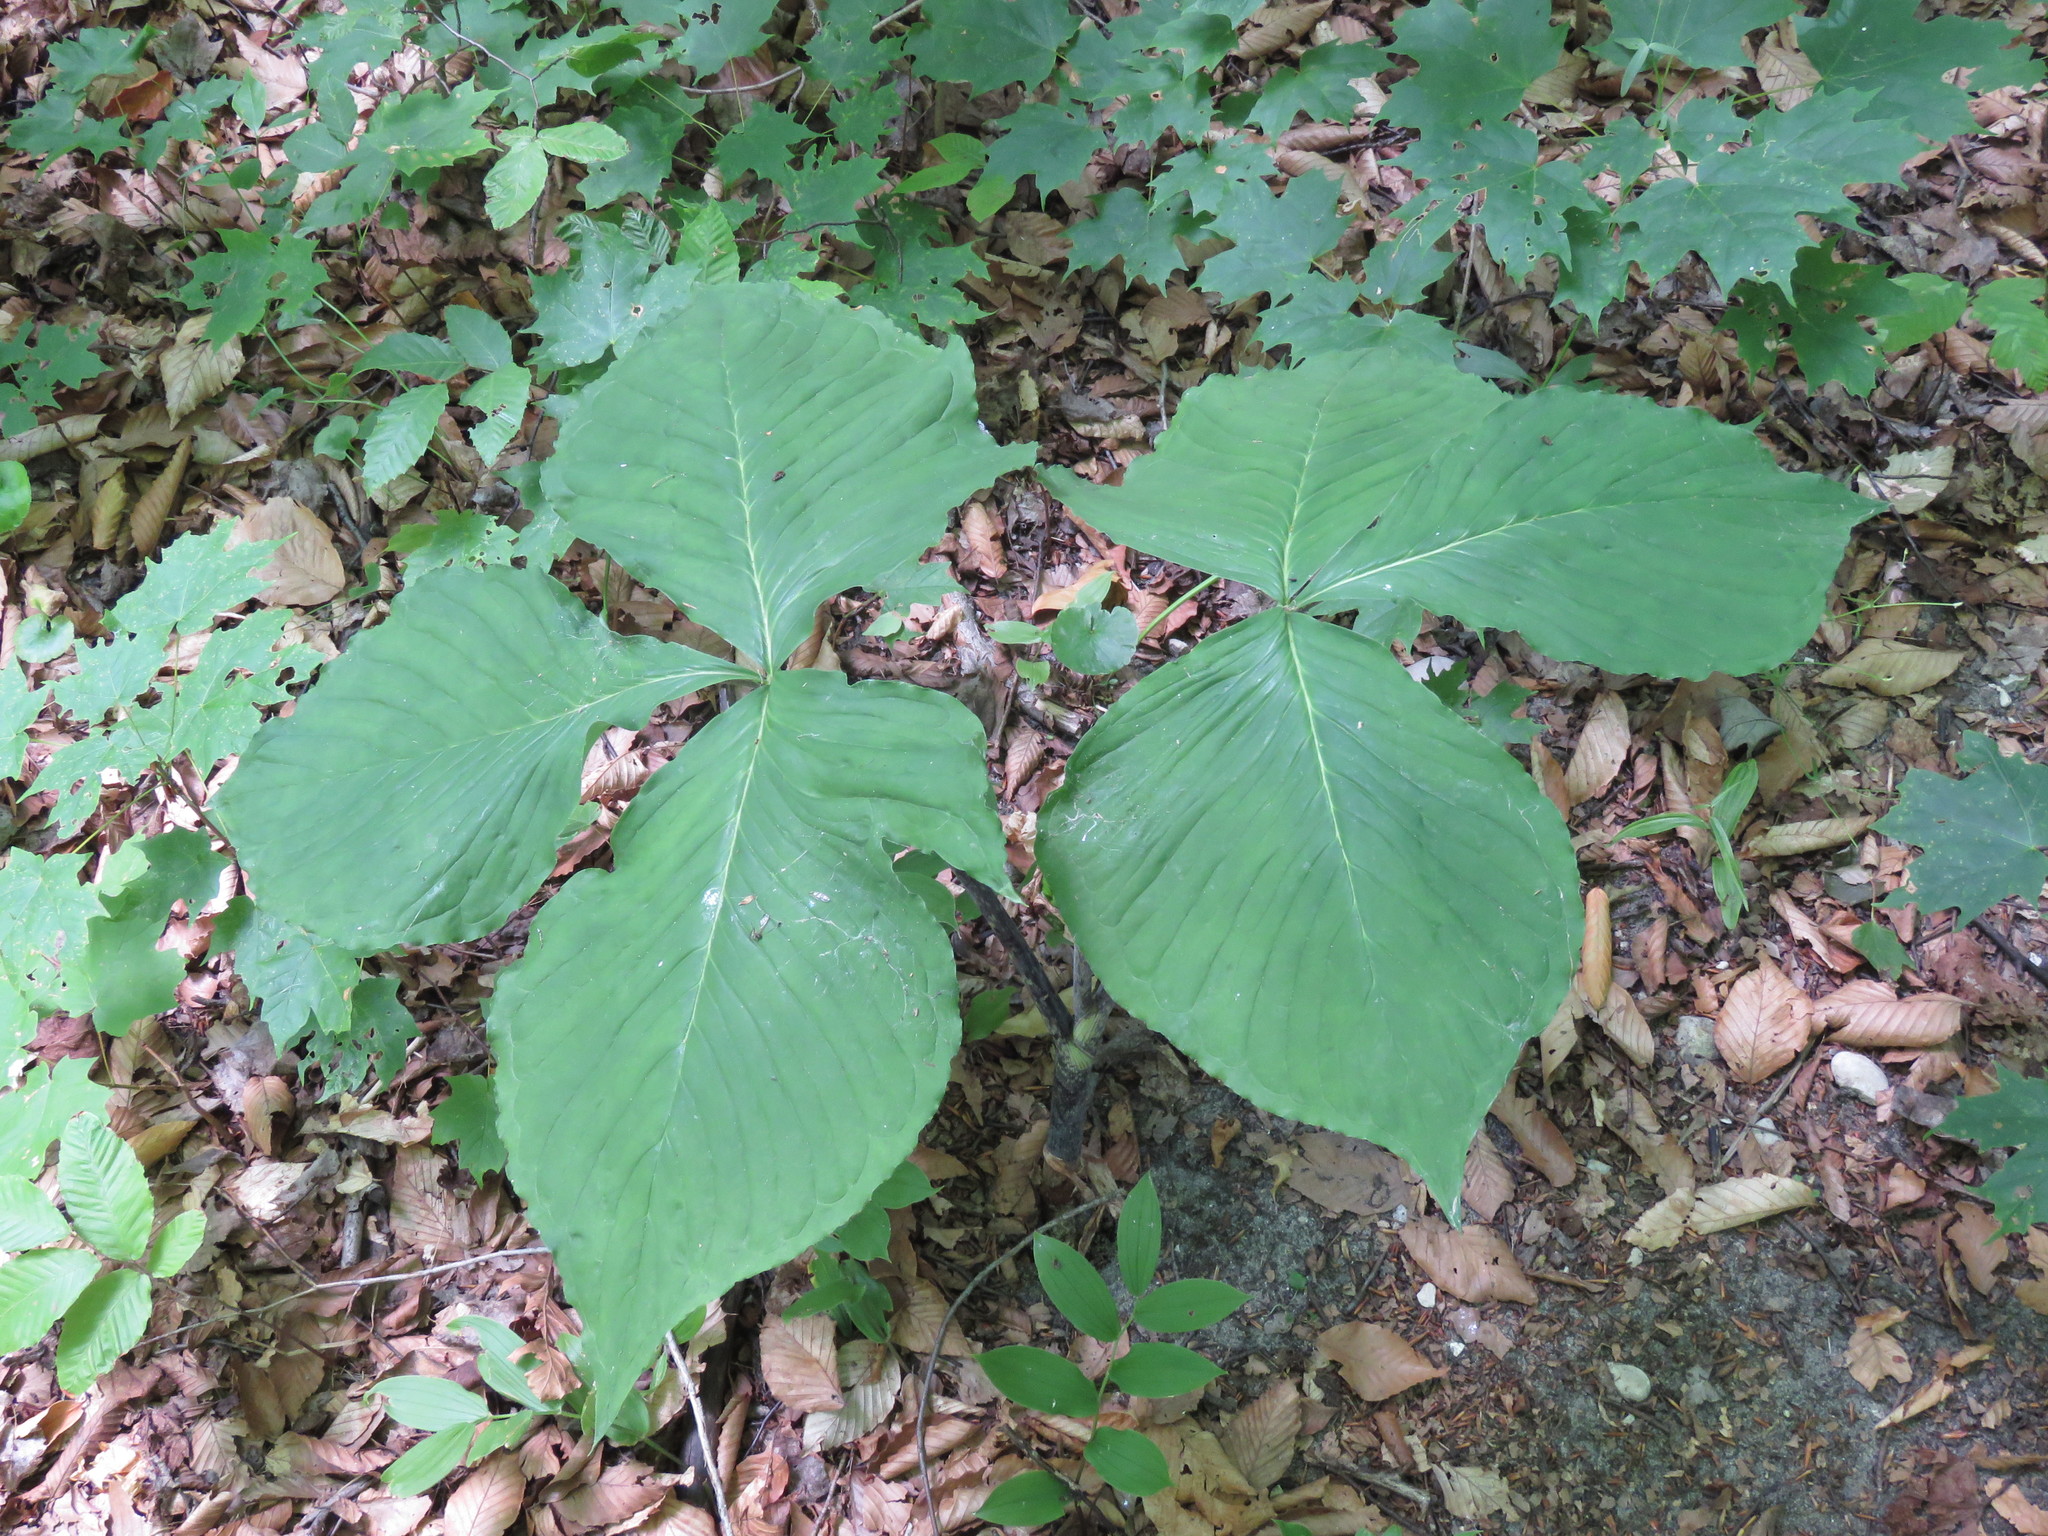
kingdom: Plantae
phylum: Tracheophyta
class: Liliopsida
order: Alismatales
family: Araceae
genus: Arisaema
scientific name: Arisaema triphyllum
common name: Jack-in-the-pulpit
